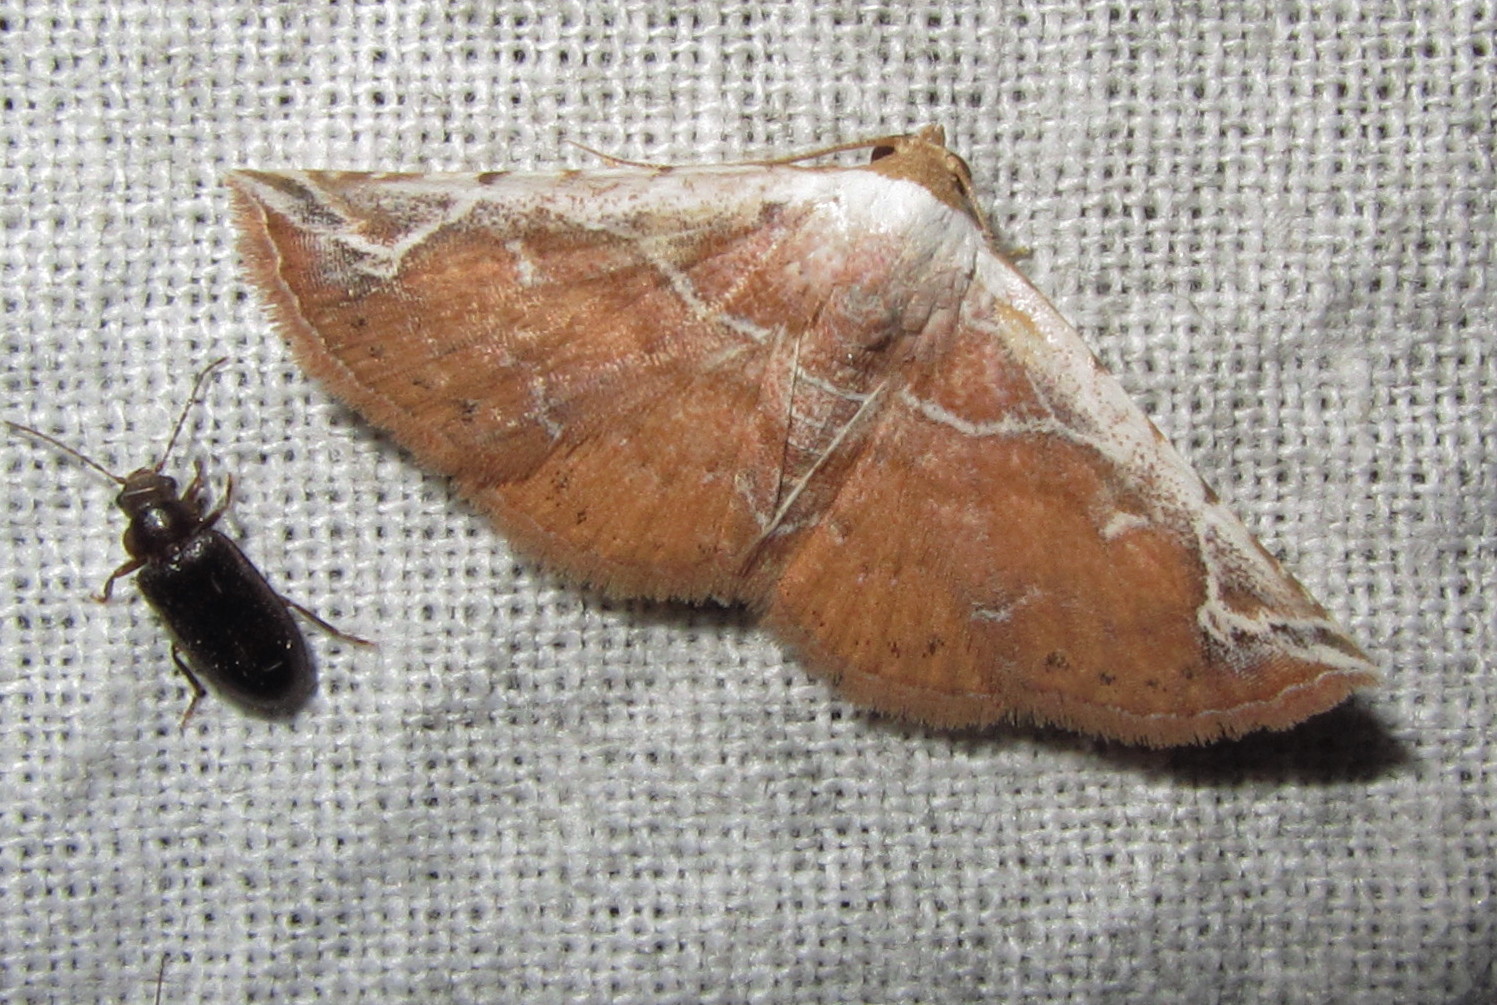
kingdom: Animalia
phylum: Arthropoda
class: Insecta
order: Lepidoptera
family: Noctuidae
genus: Eublemma
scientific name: Eublemma albostriata
